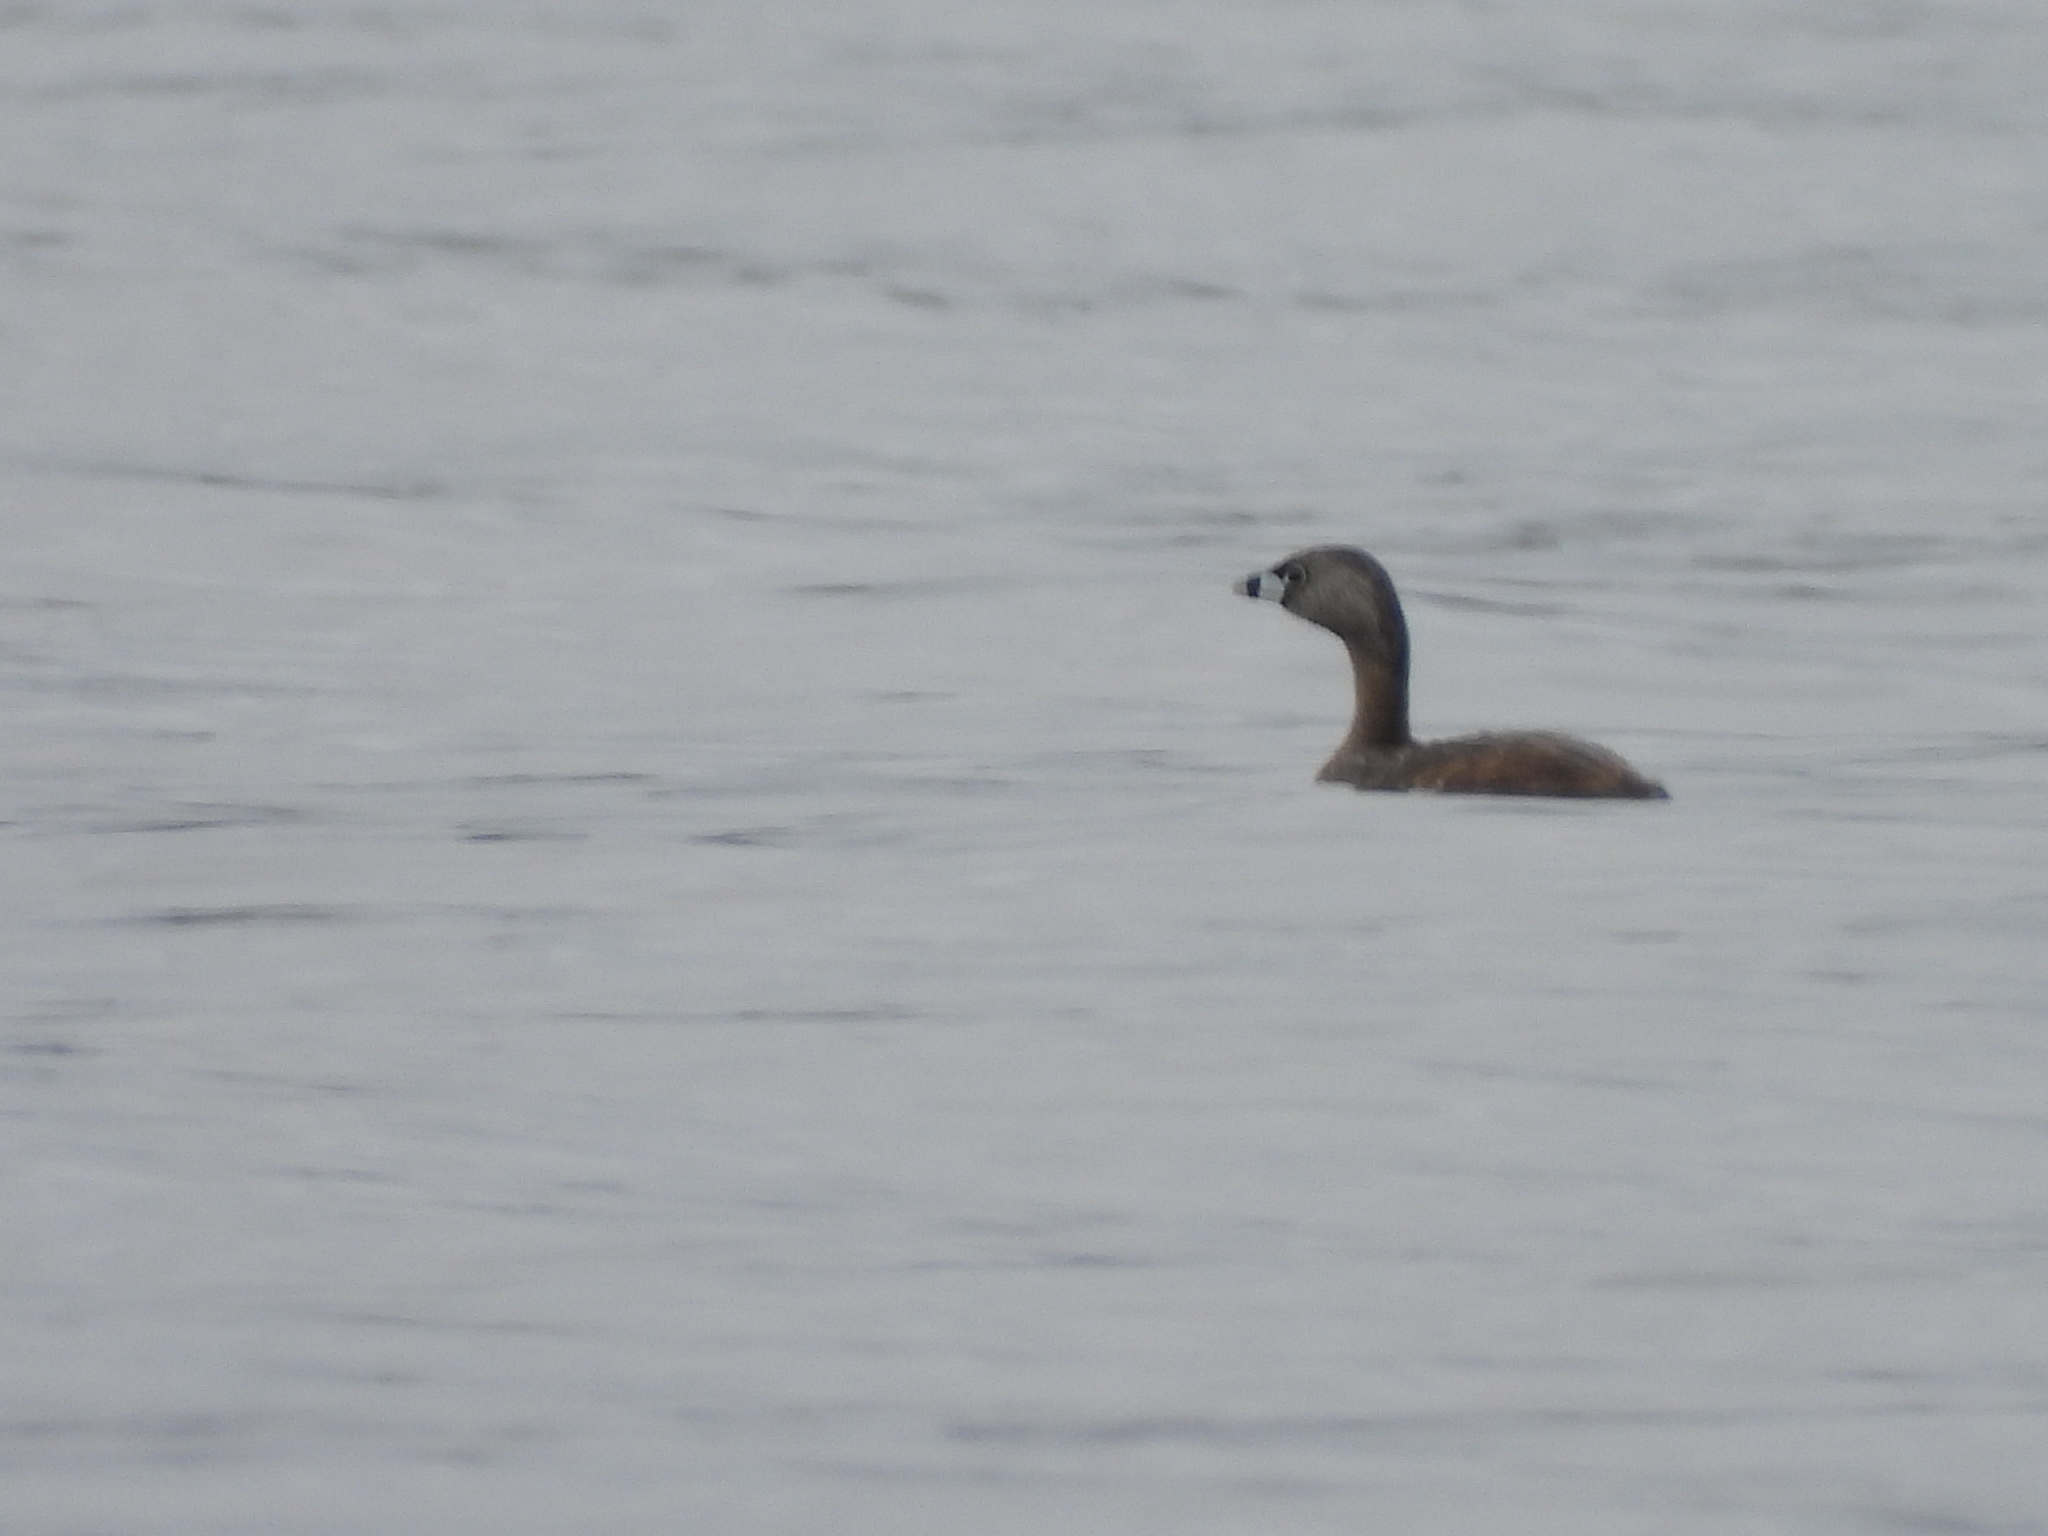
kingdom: Animalia
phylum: Chordata
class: Aves
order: Podicipediformes
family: Podicipedidae
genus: Podilymbus
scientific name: Podilymbus podiceps
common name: Pied-billed grebe
